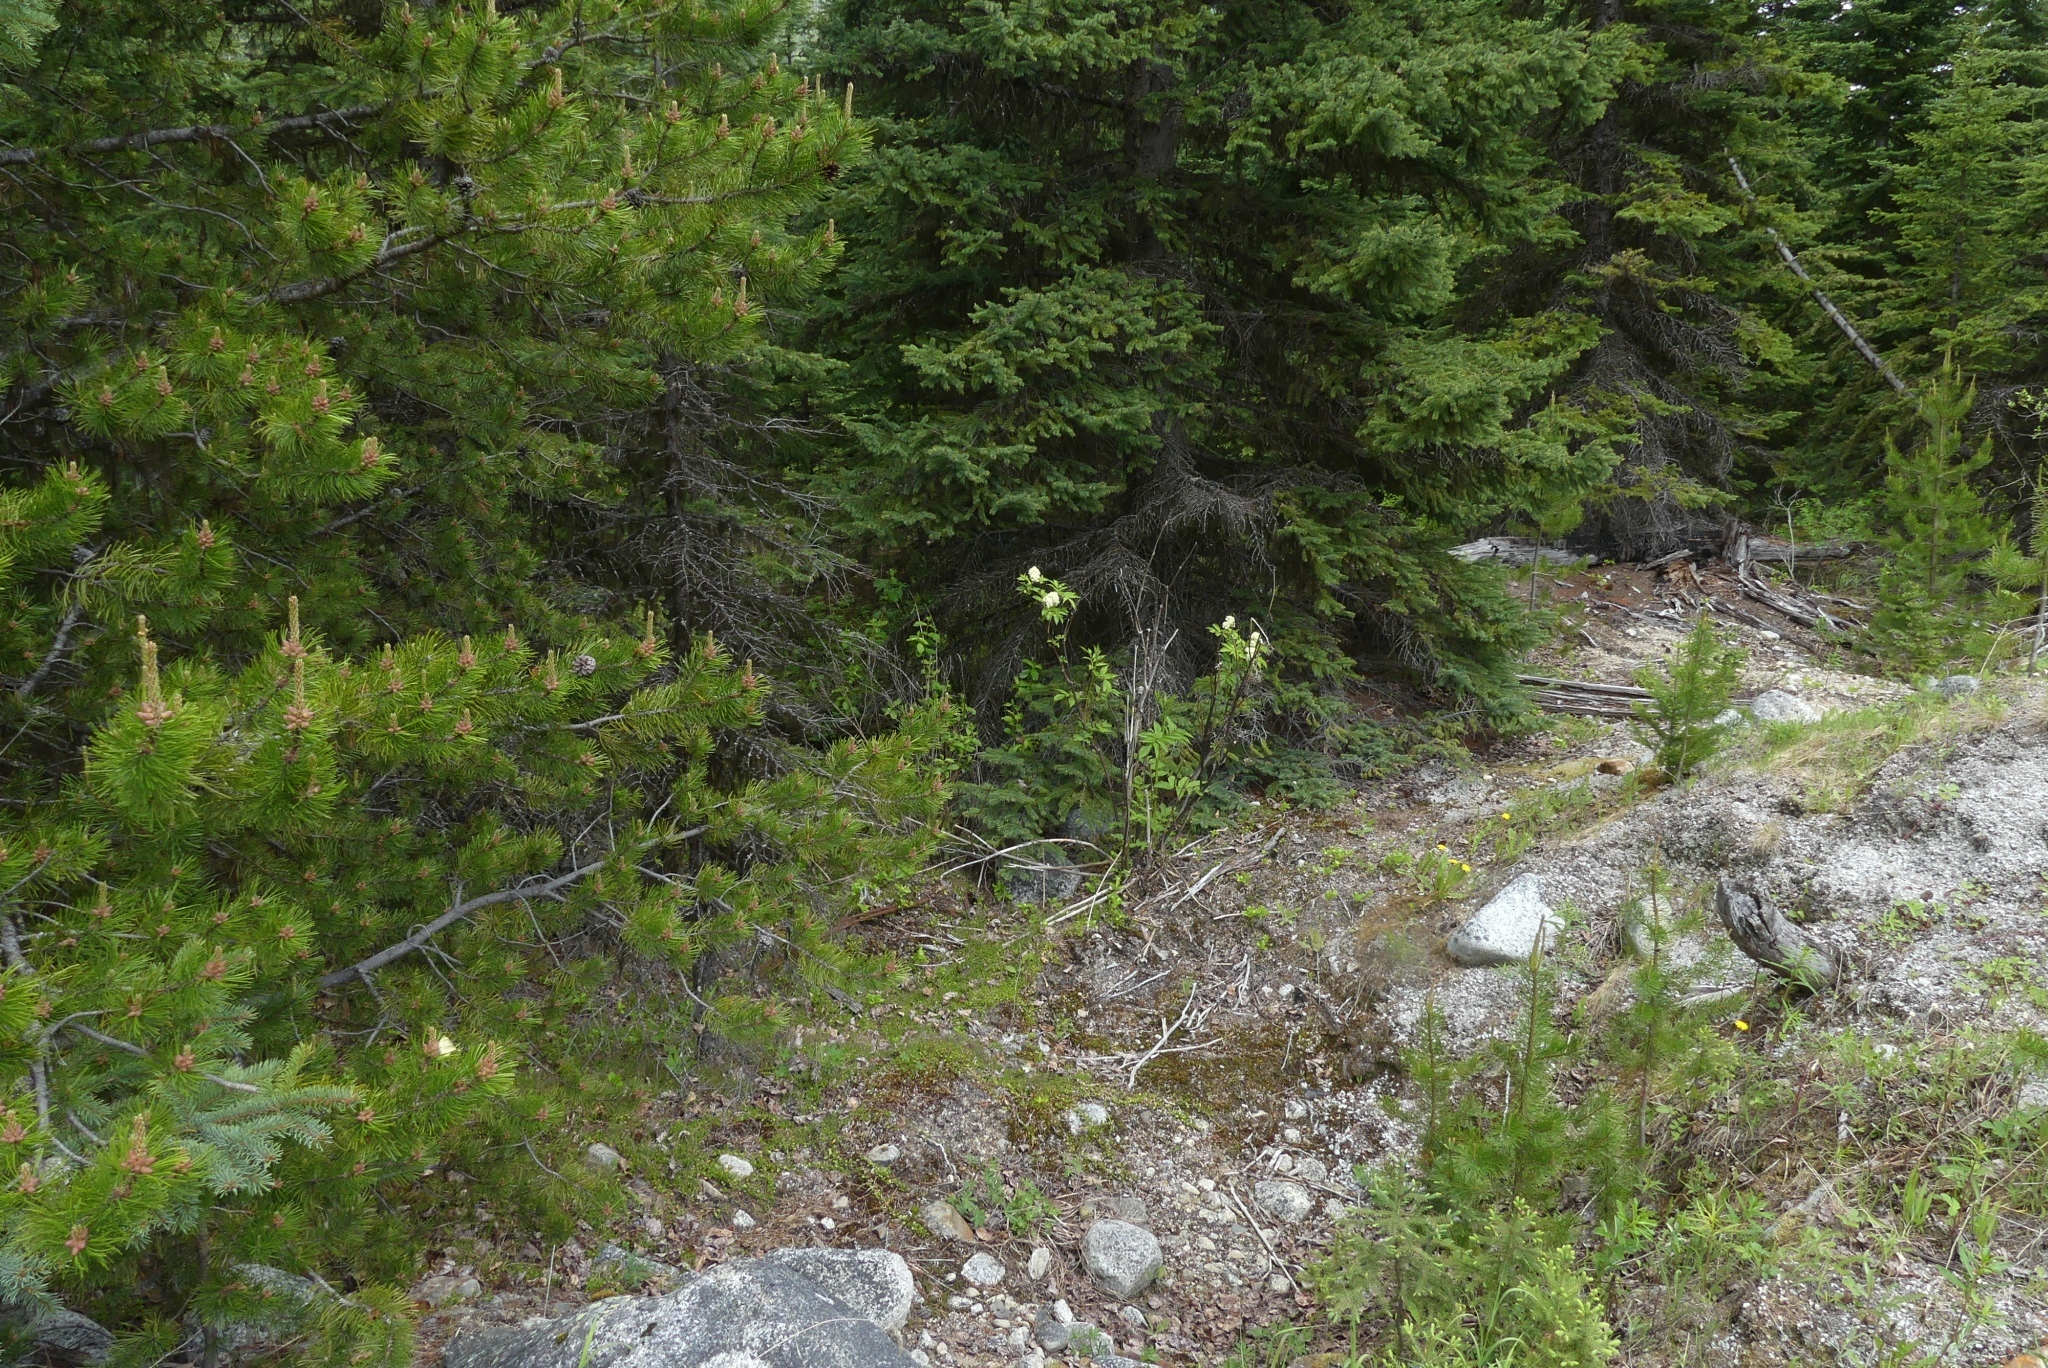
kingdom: Plantae
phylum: Tracheophyta
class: Magnoliopsida
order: Dipsacales
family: Viburnaceae
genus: Sambucus
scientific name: Sambucus racemosa
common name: Red-berried elder
